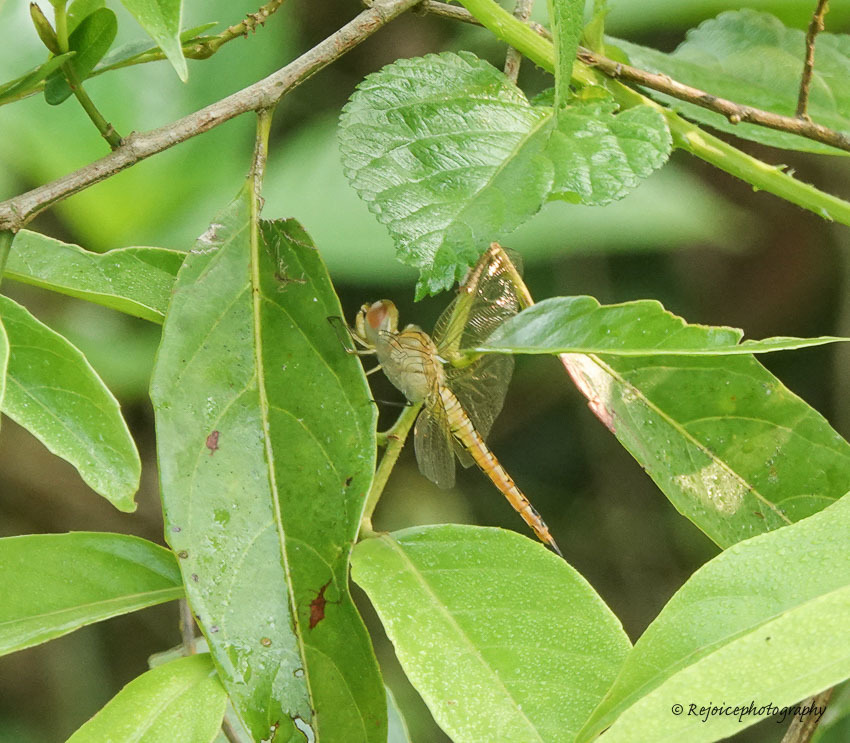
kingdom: Animalia
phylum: Arthropoda
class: Insecta
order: Odonata
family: Libellulidae
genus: Pantala
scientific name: Pantala flavescens
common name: Wandering glider
